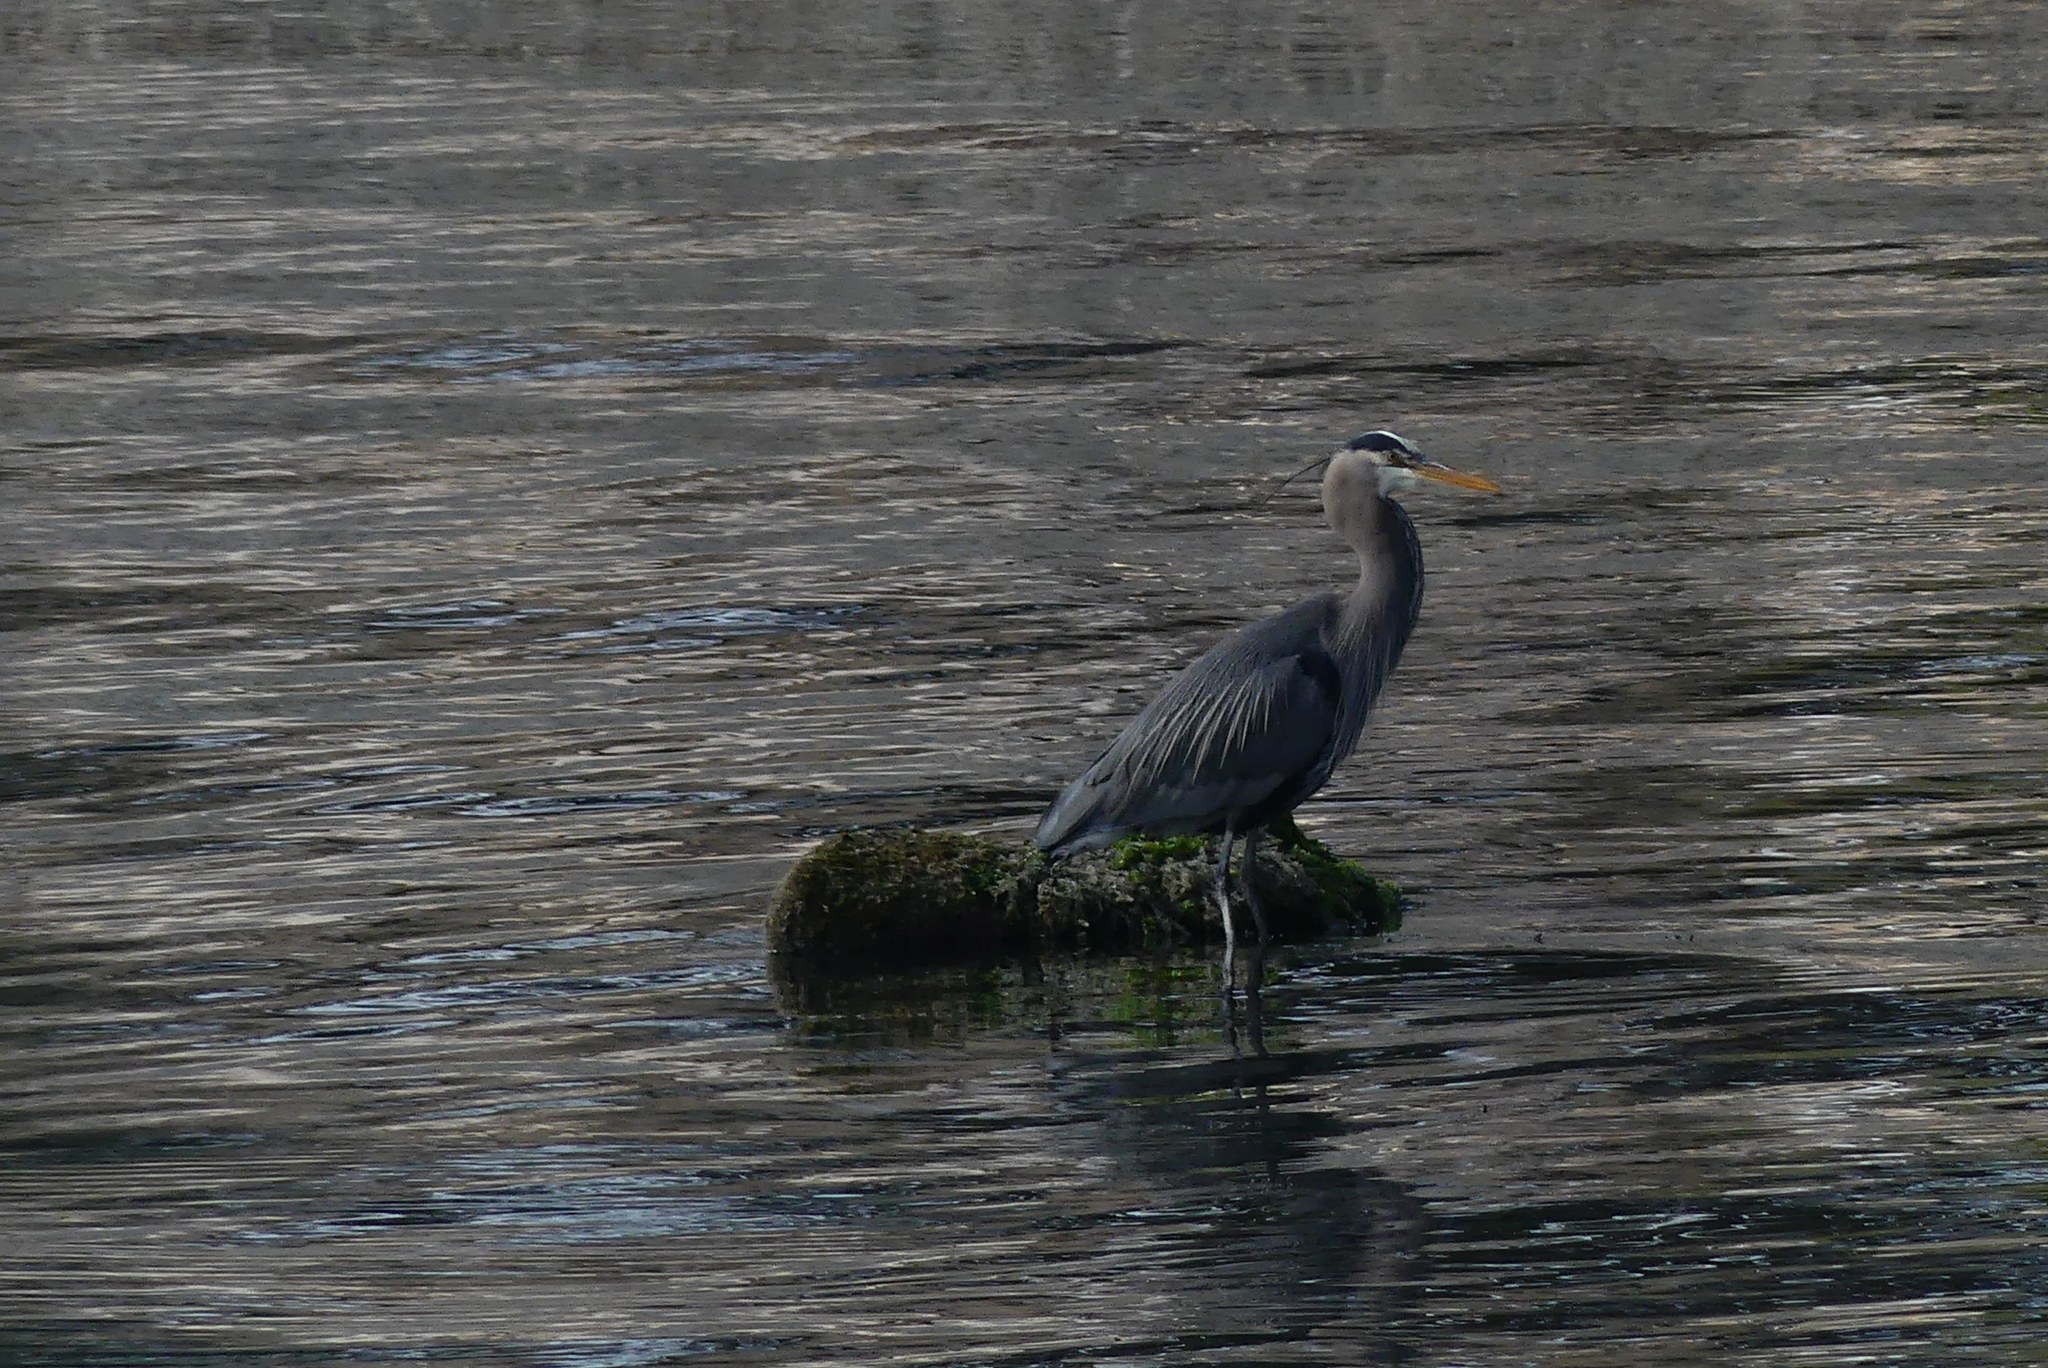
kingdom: Animalia
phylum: Chordata
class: Aves
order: Pelecaniformes
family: Ardeidae
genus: Ardea
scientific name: Ardea herodias
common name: Great blue heron
